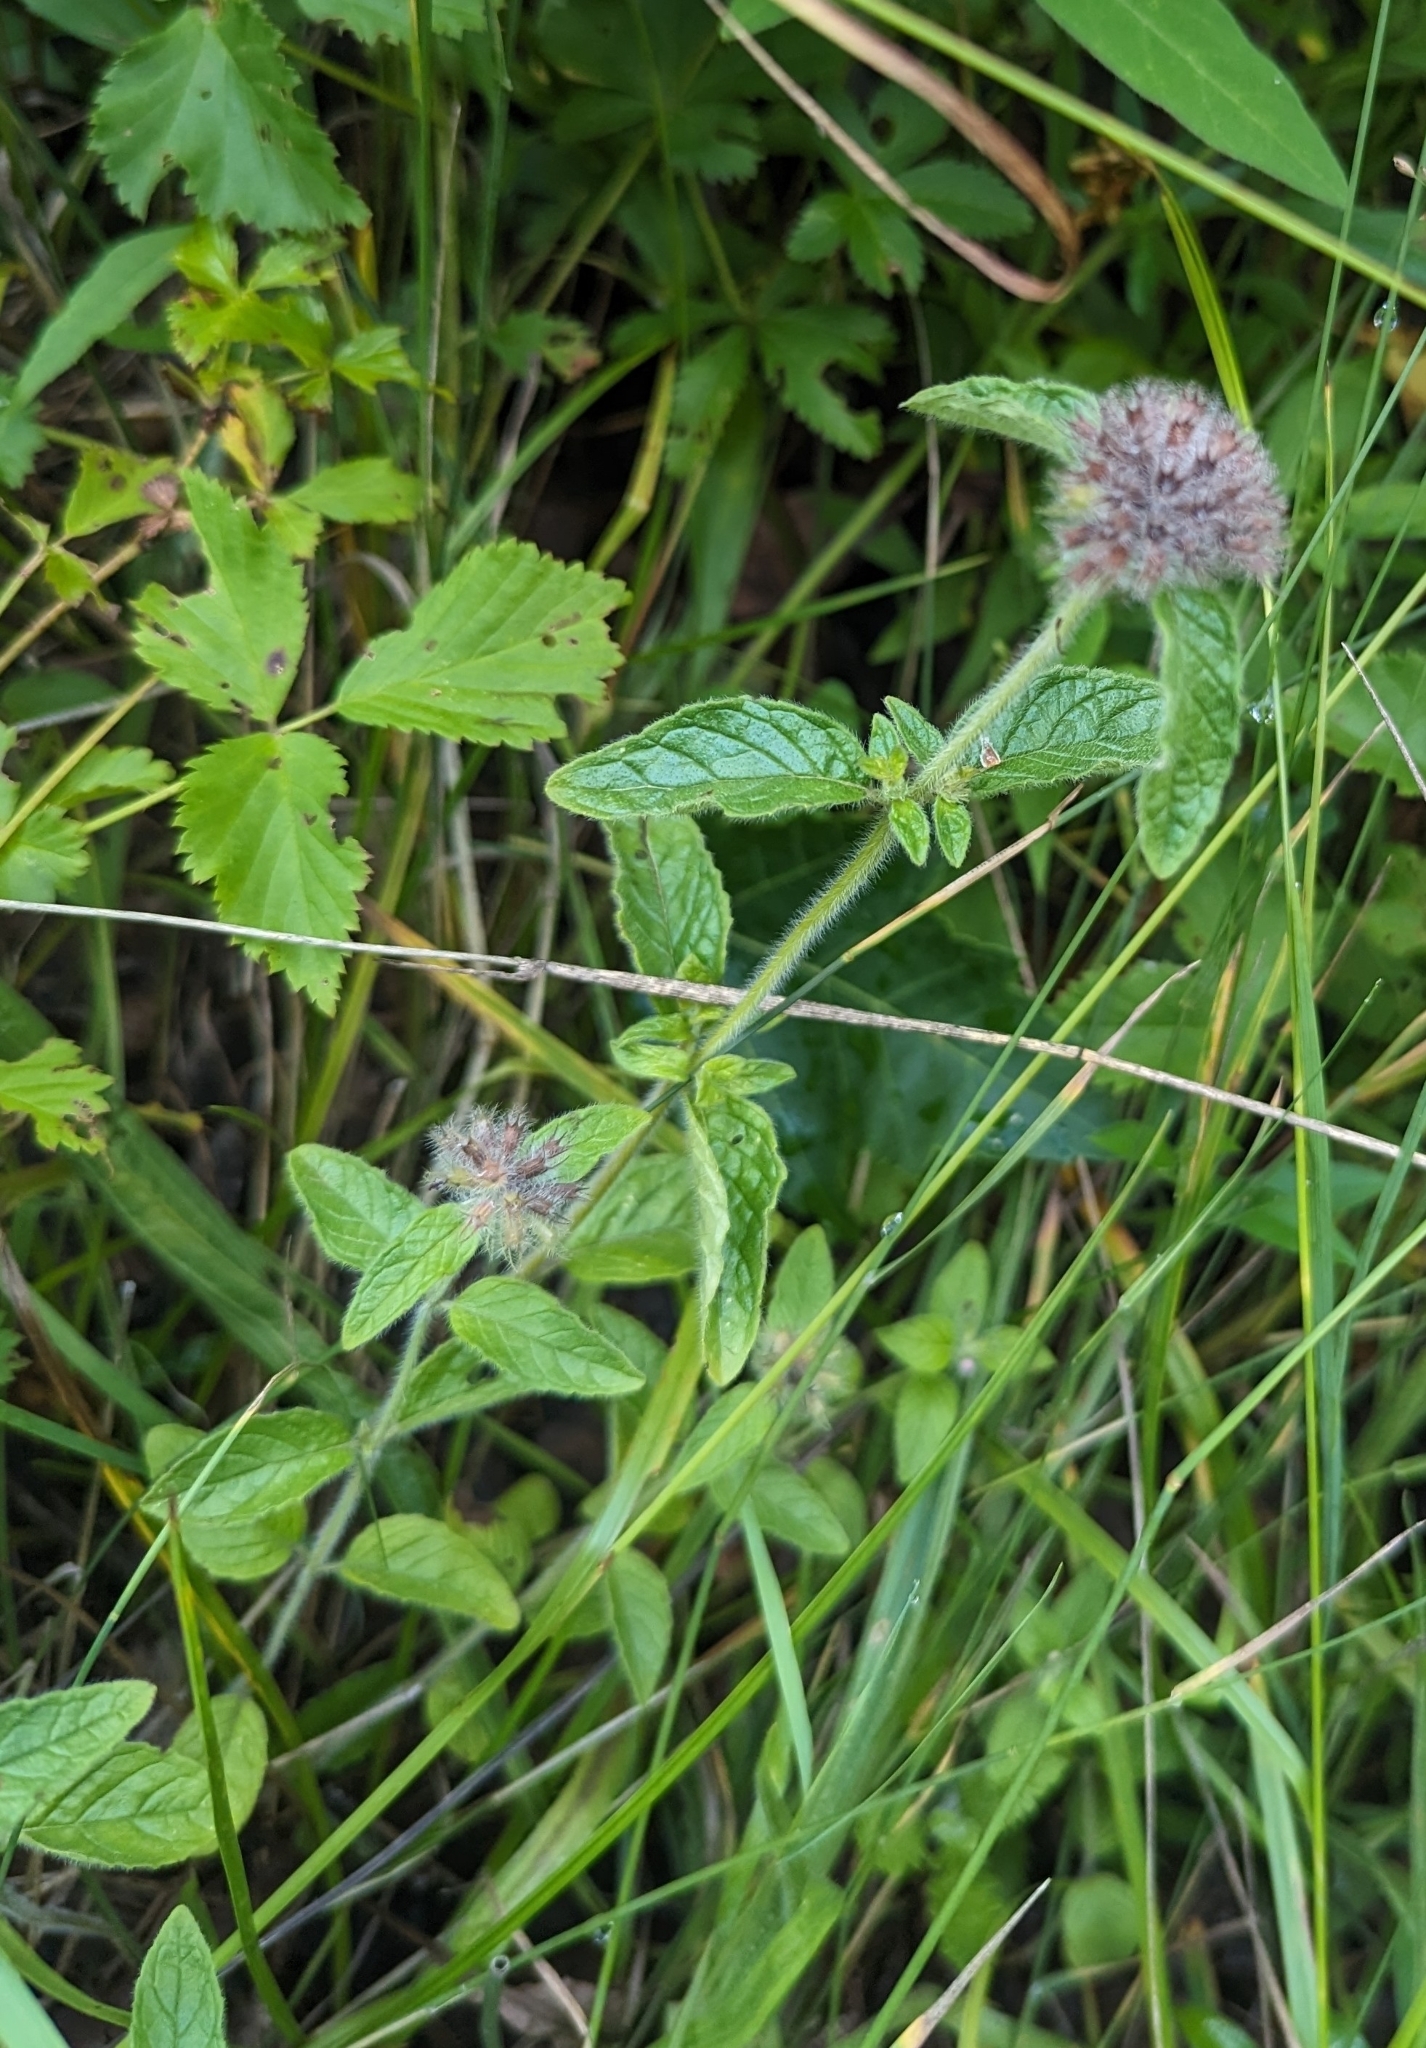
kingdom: Plantae
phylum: Tracheophyta
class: Magnoliopsida
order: Lamiales
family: Lamiaceae
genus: Clinopodium
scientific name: Clinopodium vulgare
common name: Wild basil
